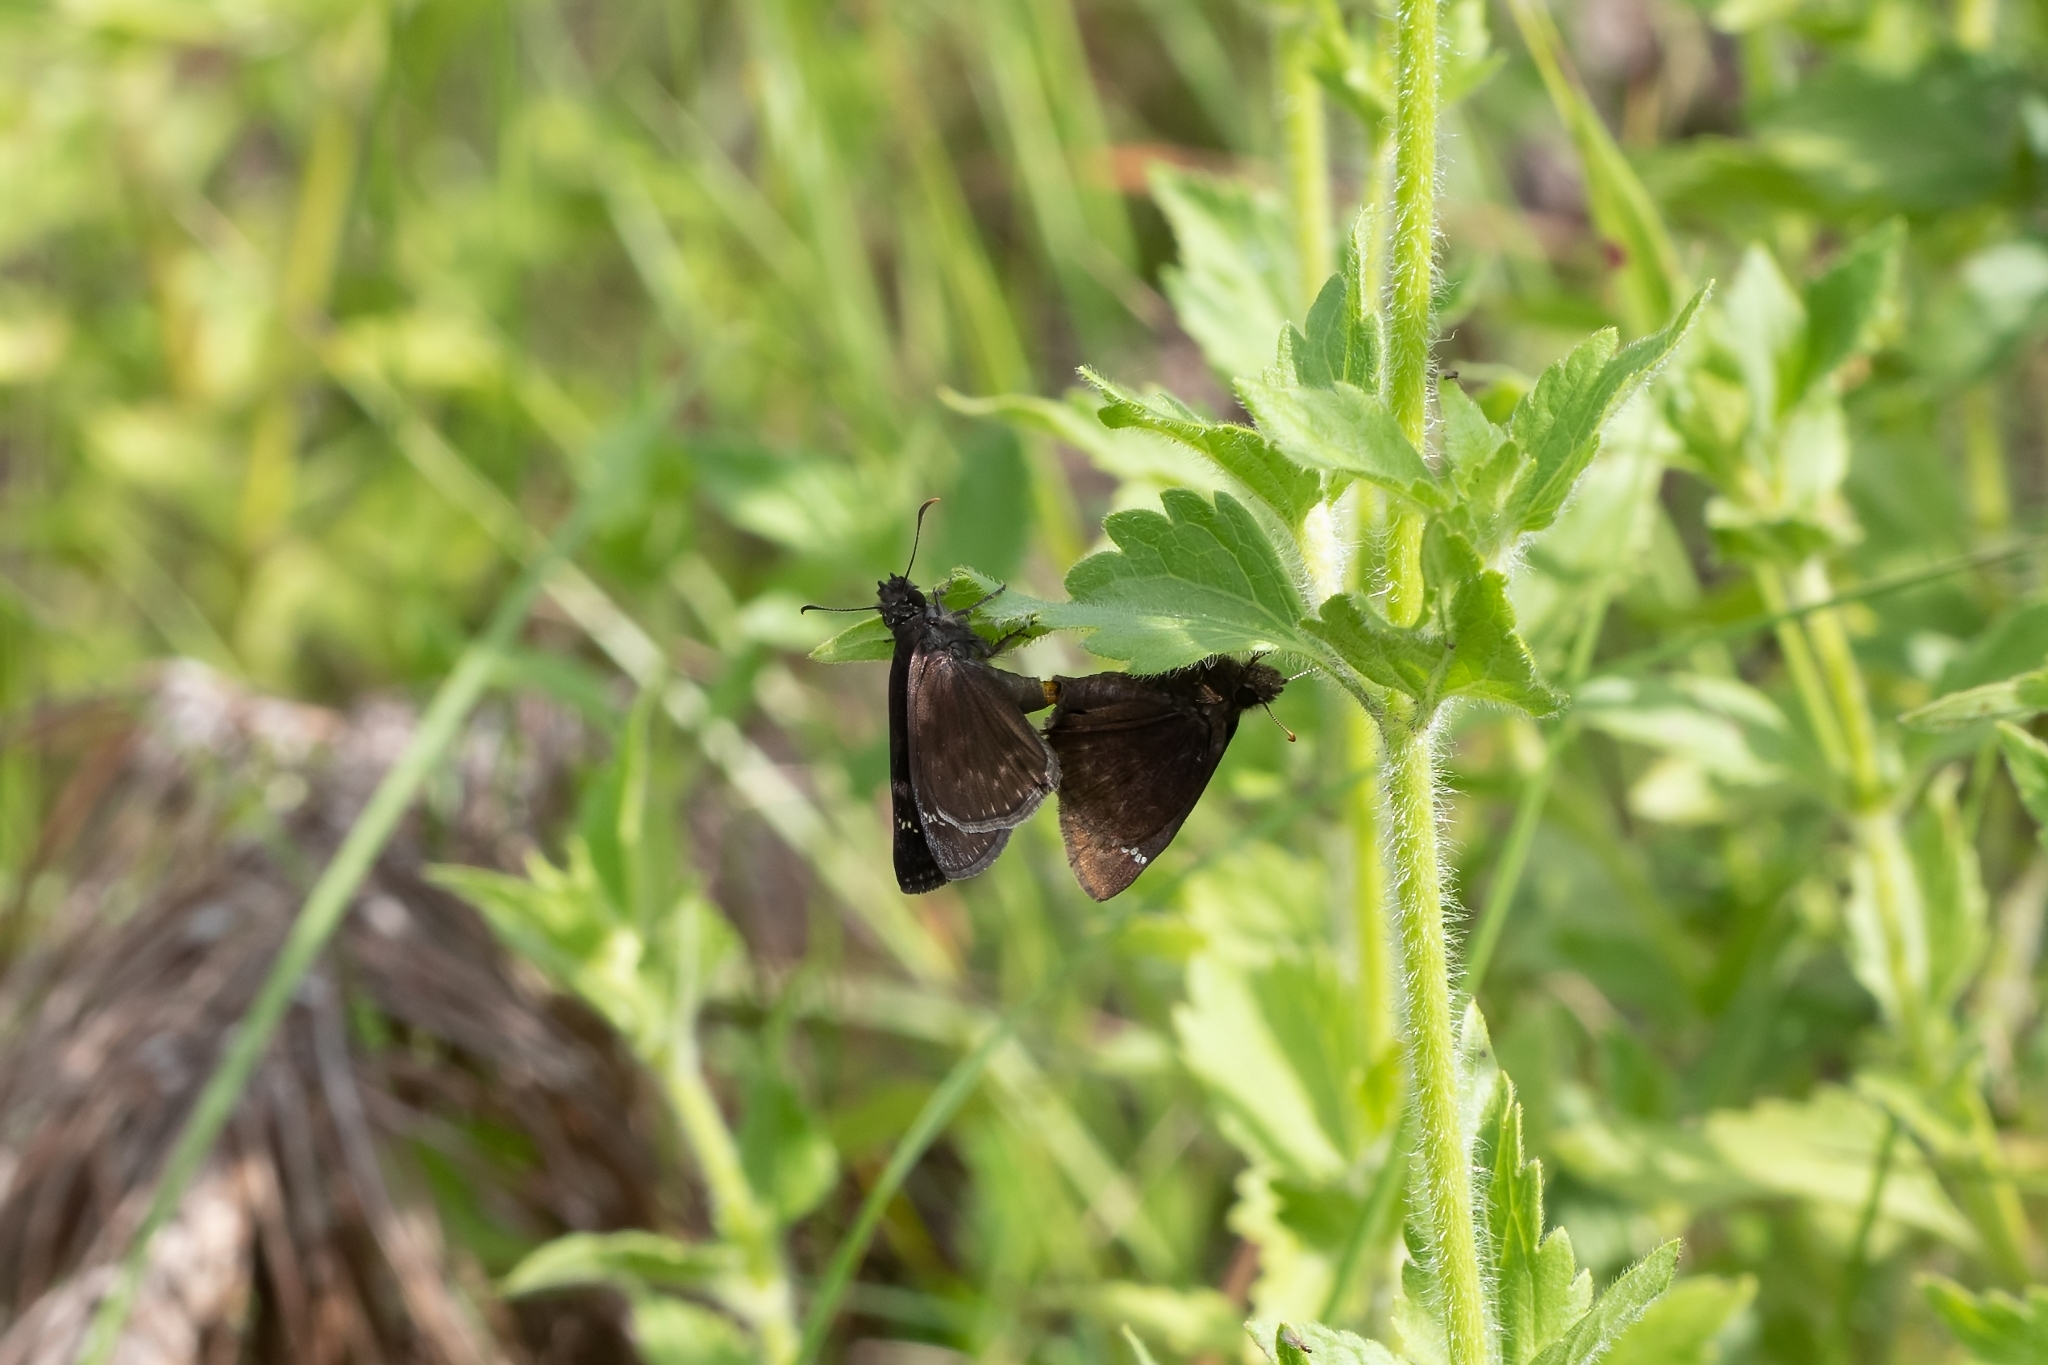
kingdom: Animalia
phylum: Arthropoda
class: Insecta
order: Lepidoptera
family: Hesperiidae
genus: Erynnis
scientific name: Erynnis zarucco
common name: Zarucco duskywing
